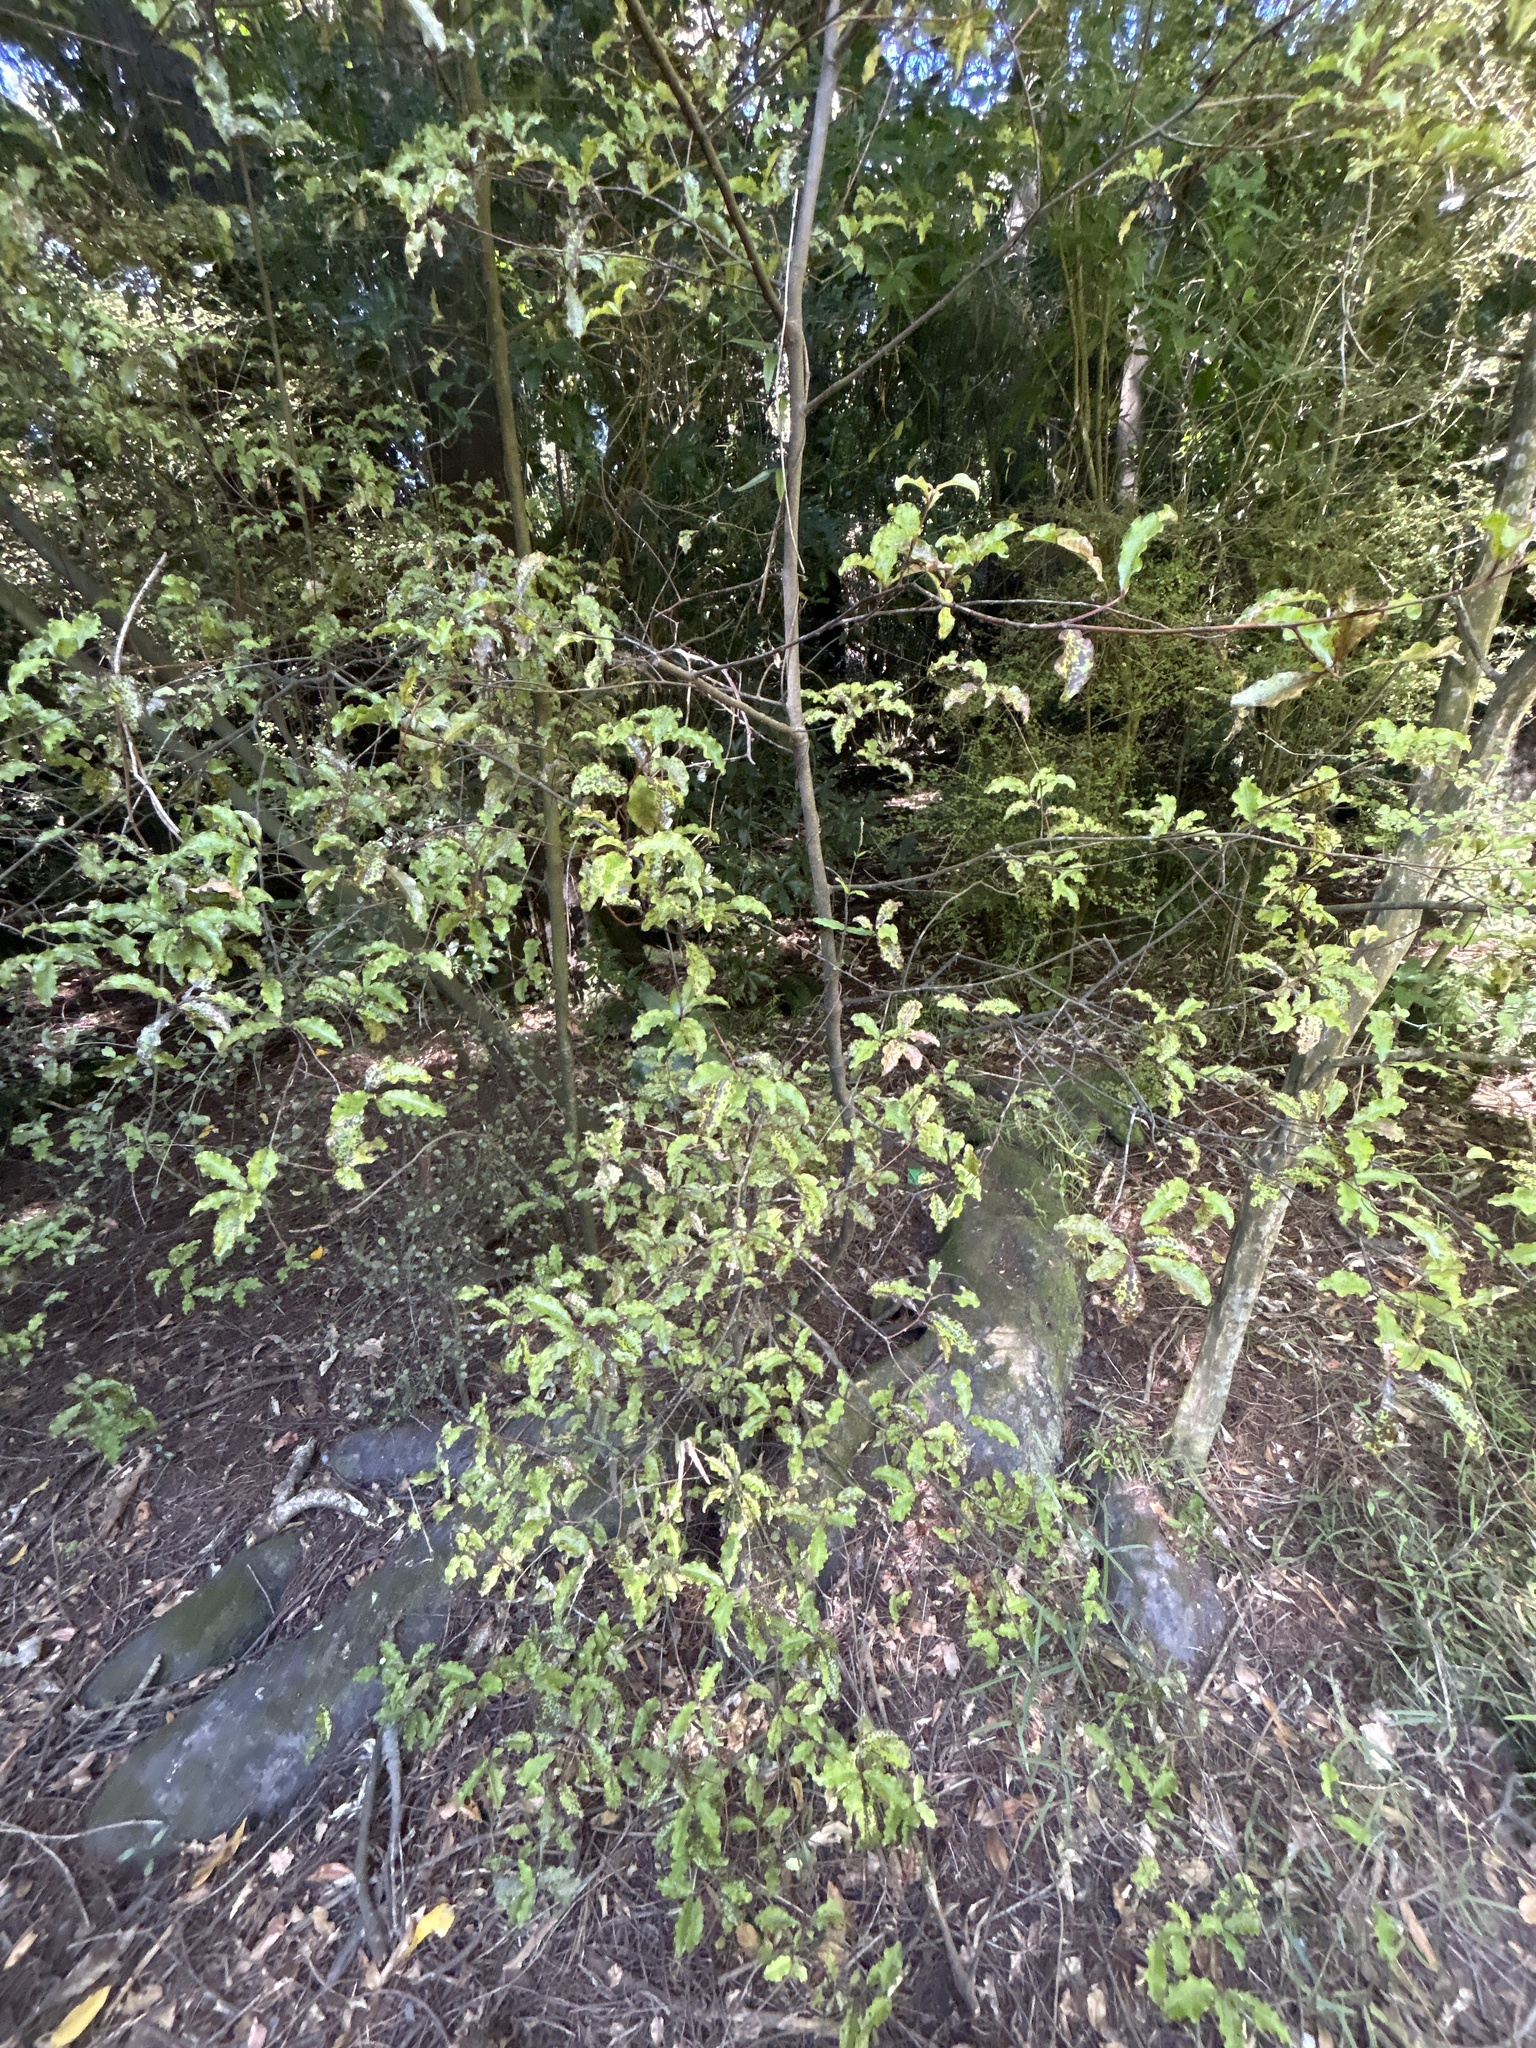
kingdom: Plantae
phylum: Tracheophyta
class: Magnoliopsida
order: Ericales
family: Primulaceae
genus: Myrsine
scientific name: Myrsine australis
